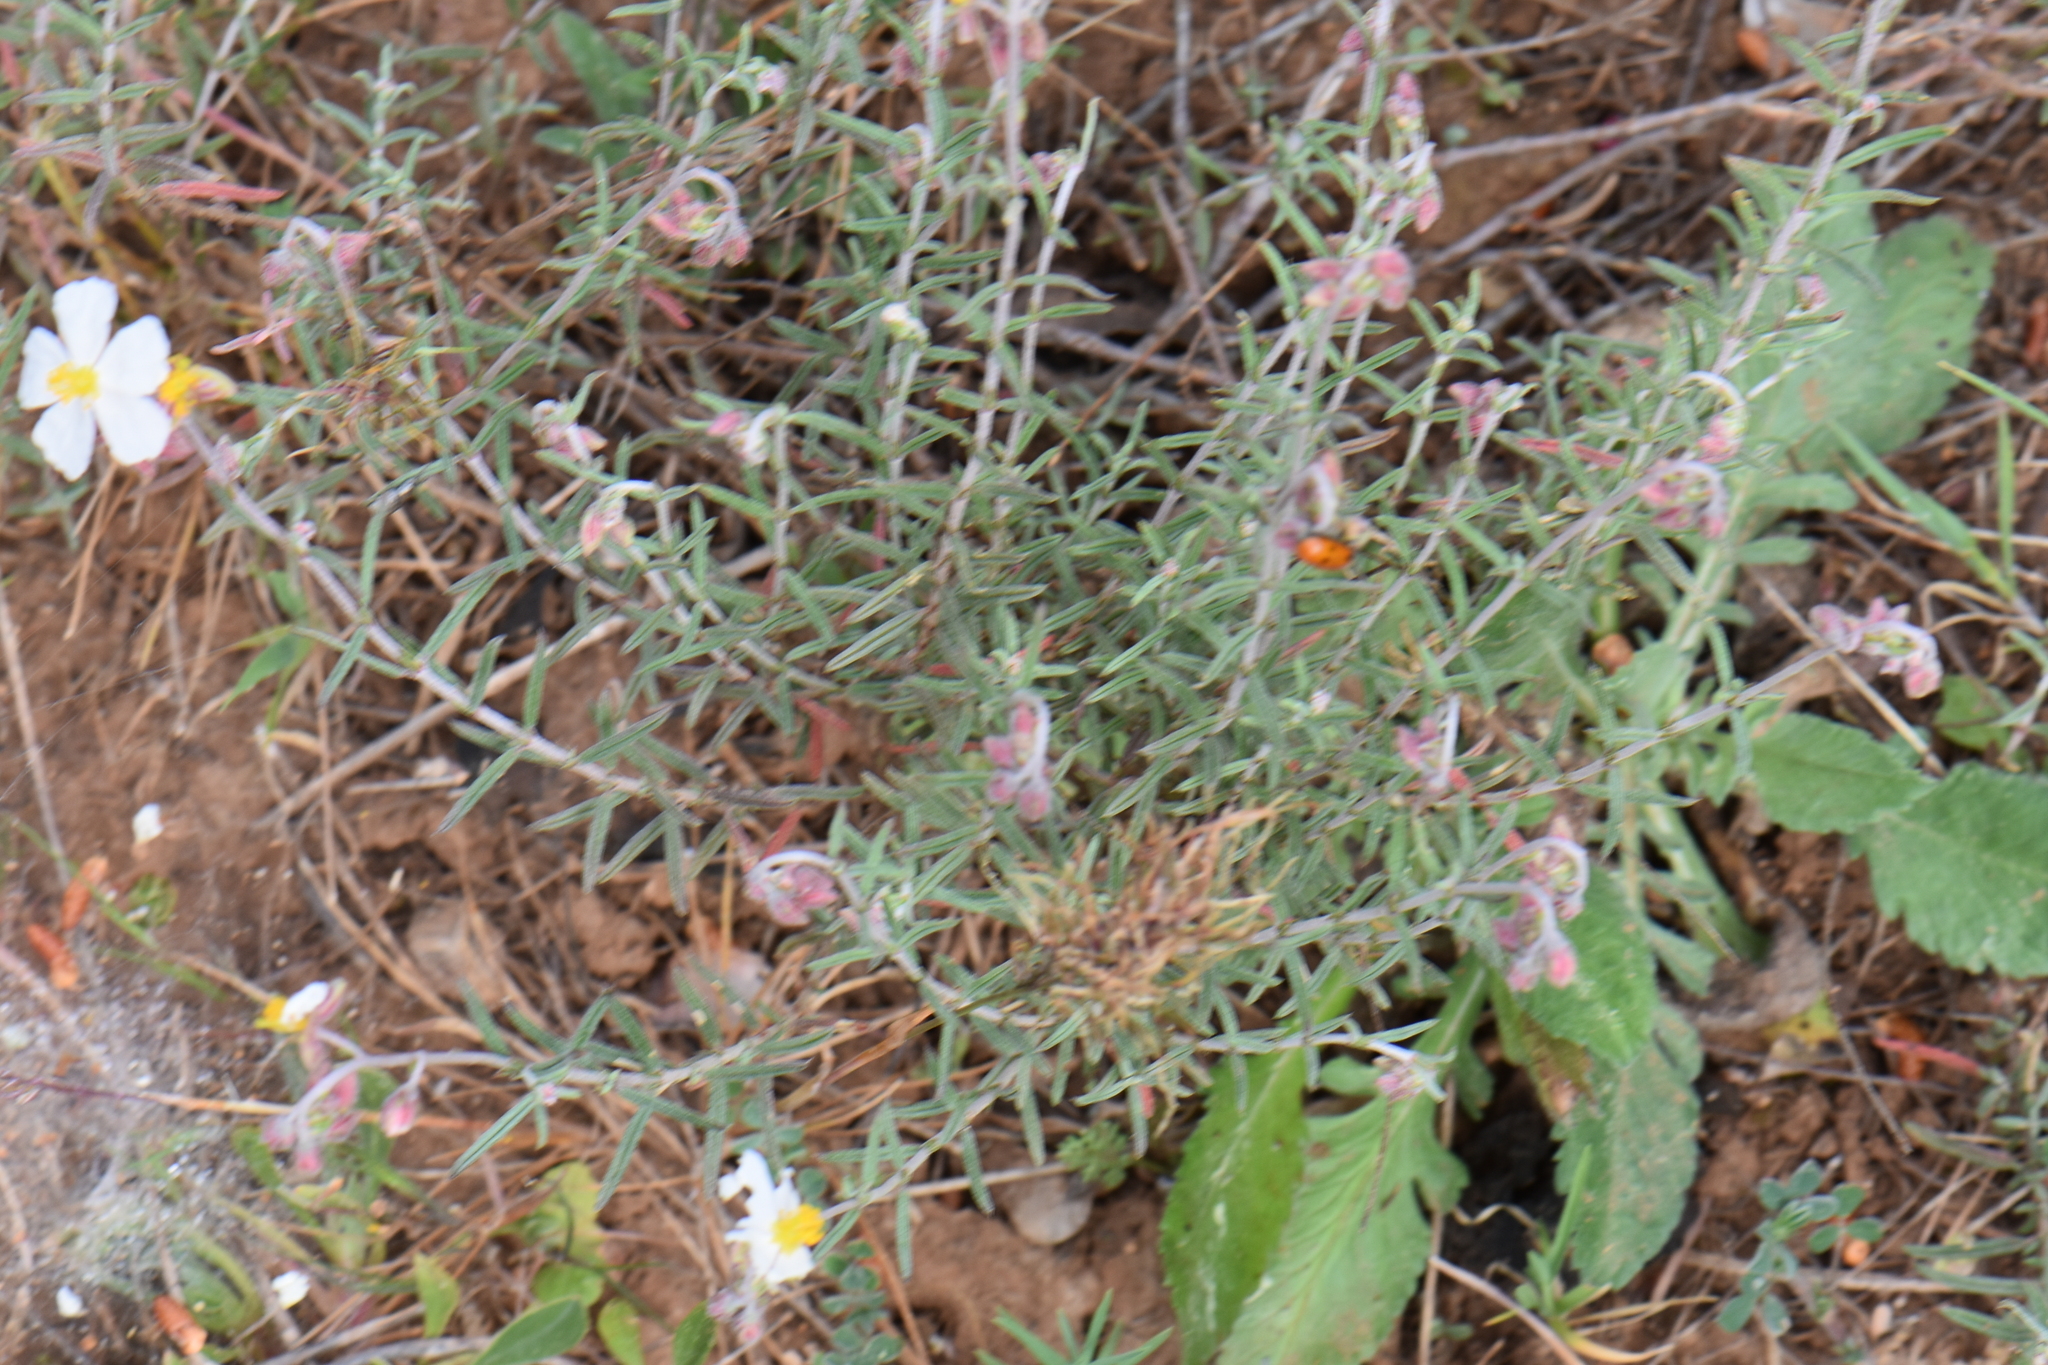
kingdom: Plantae
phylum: Tracheophyta
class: Magnoliopsida
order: Malvales
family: Cistaceae
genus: Helianthemum
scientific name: Helianthemum apenninum
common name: White rock-rose
